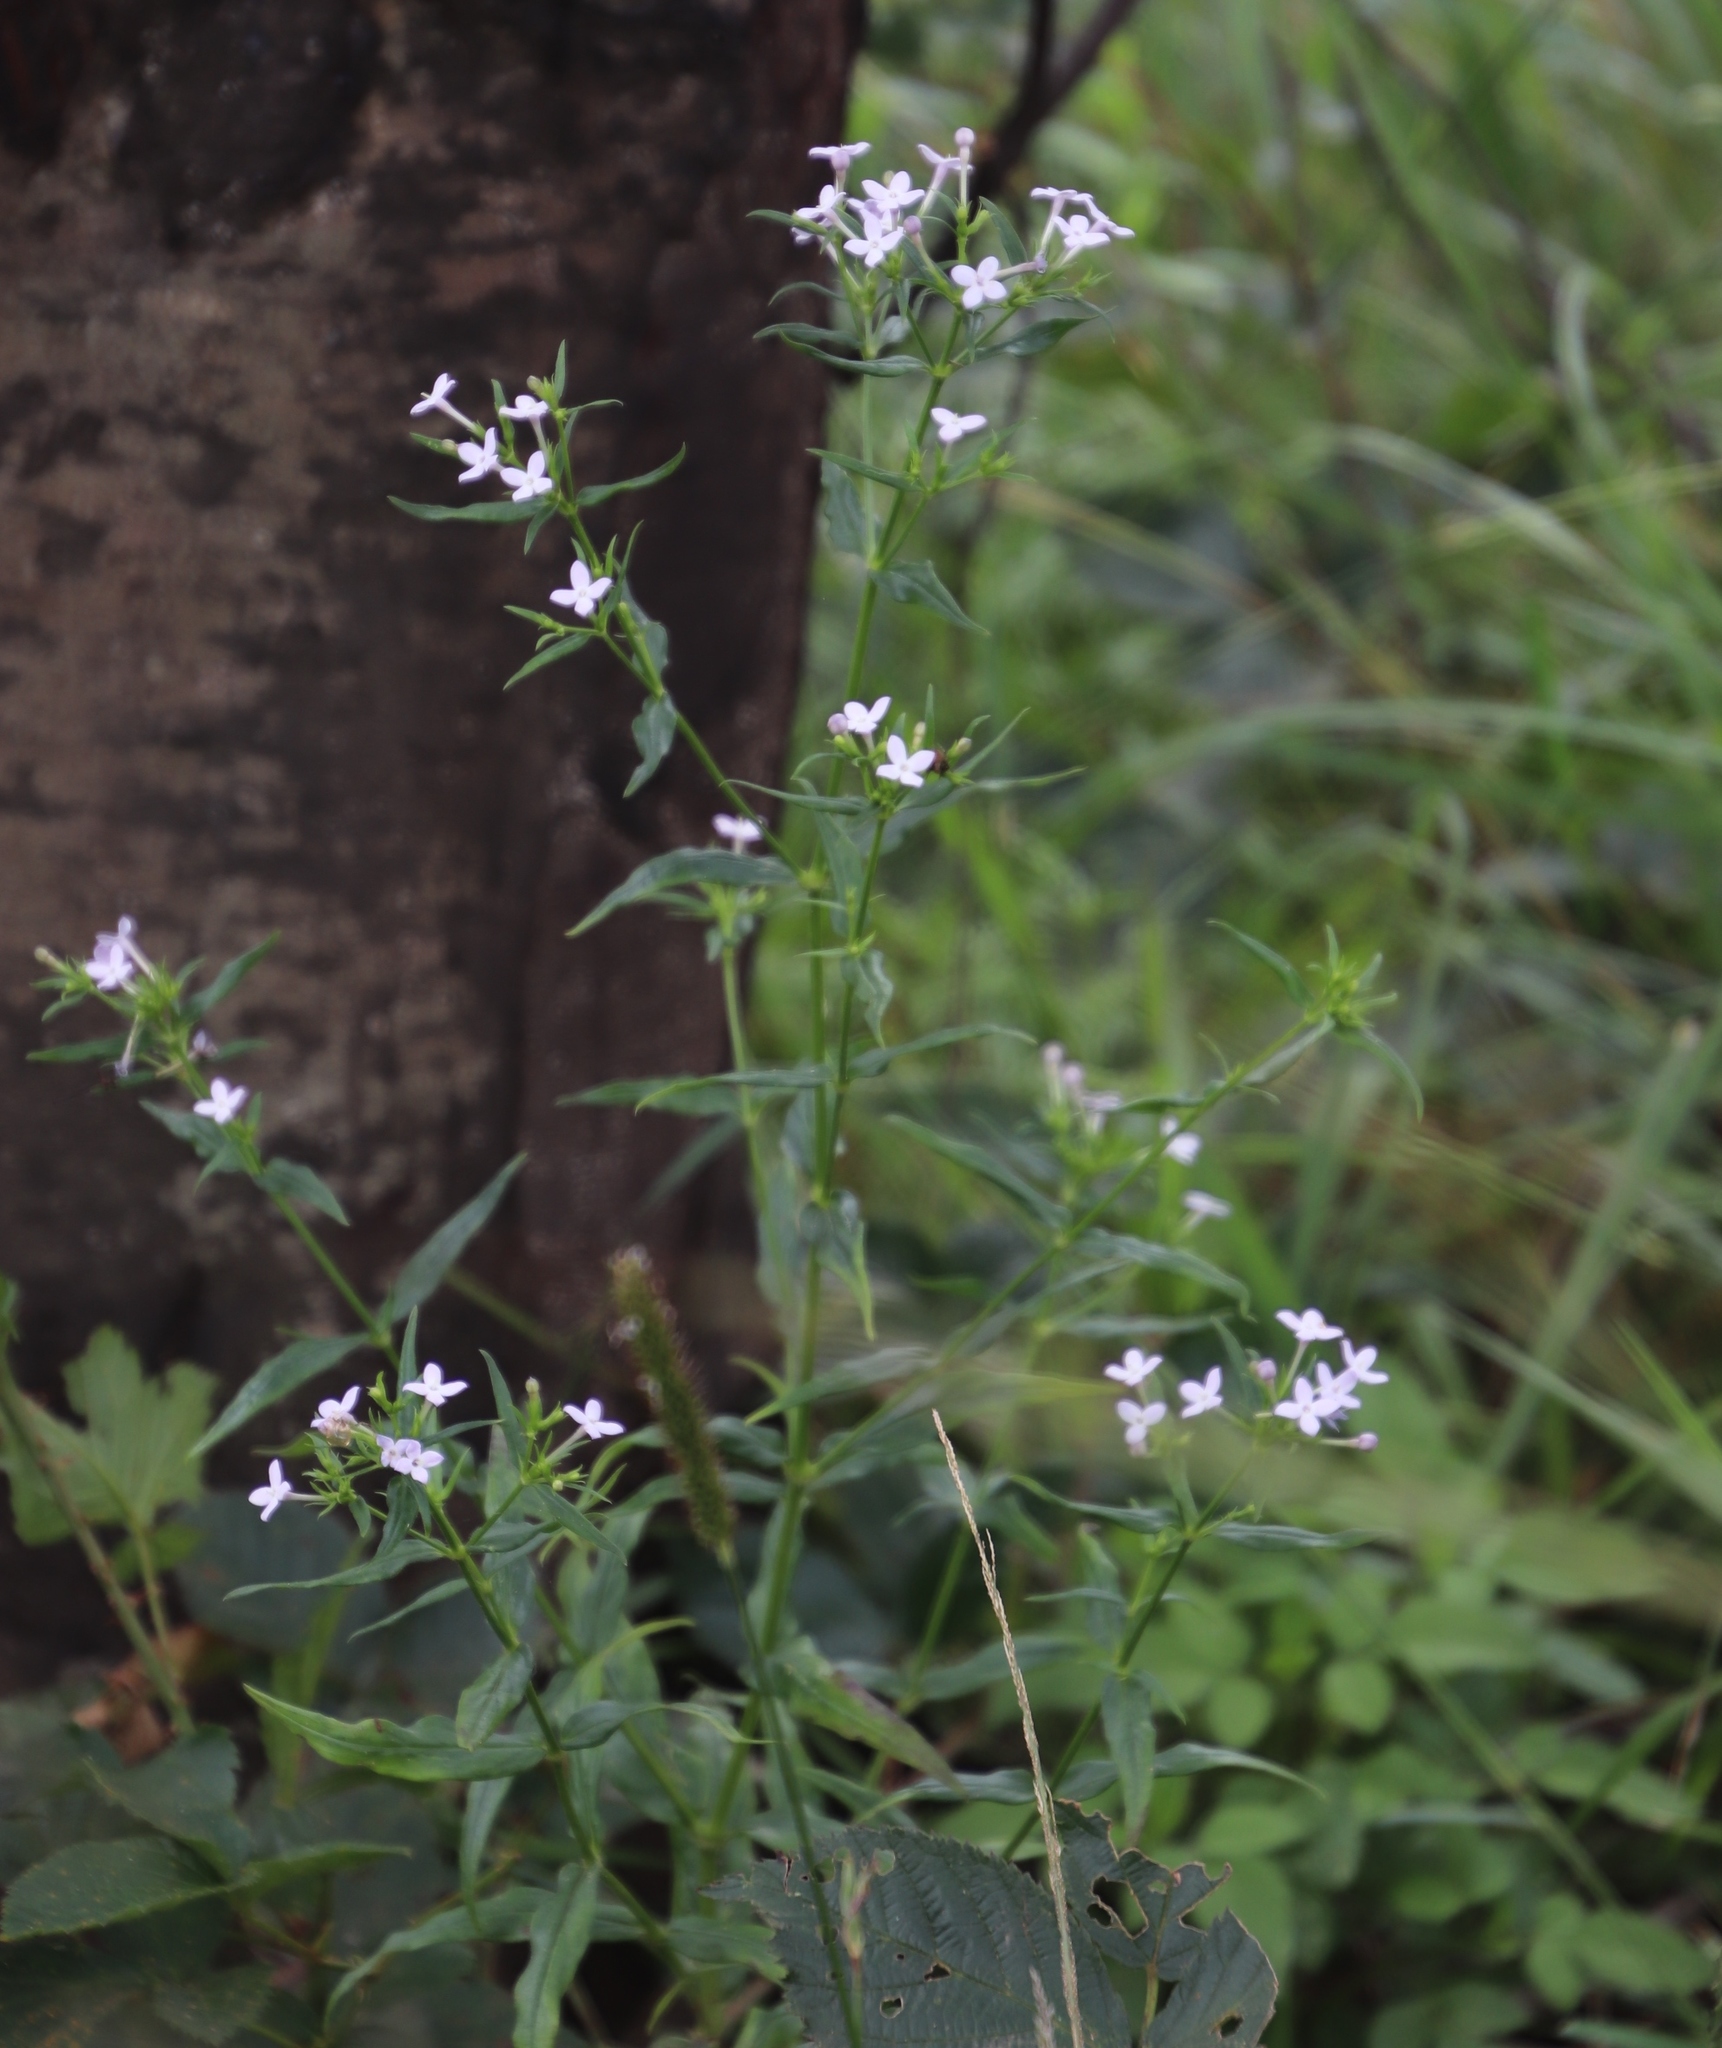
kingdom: Plantae
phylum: Tracheophyta
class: Magnoliopsida
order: Gentianales
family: Rubiaceae
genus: Conostomium
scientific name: Conostomium natalense
